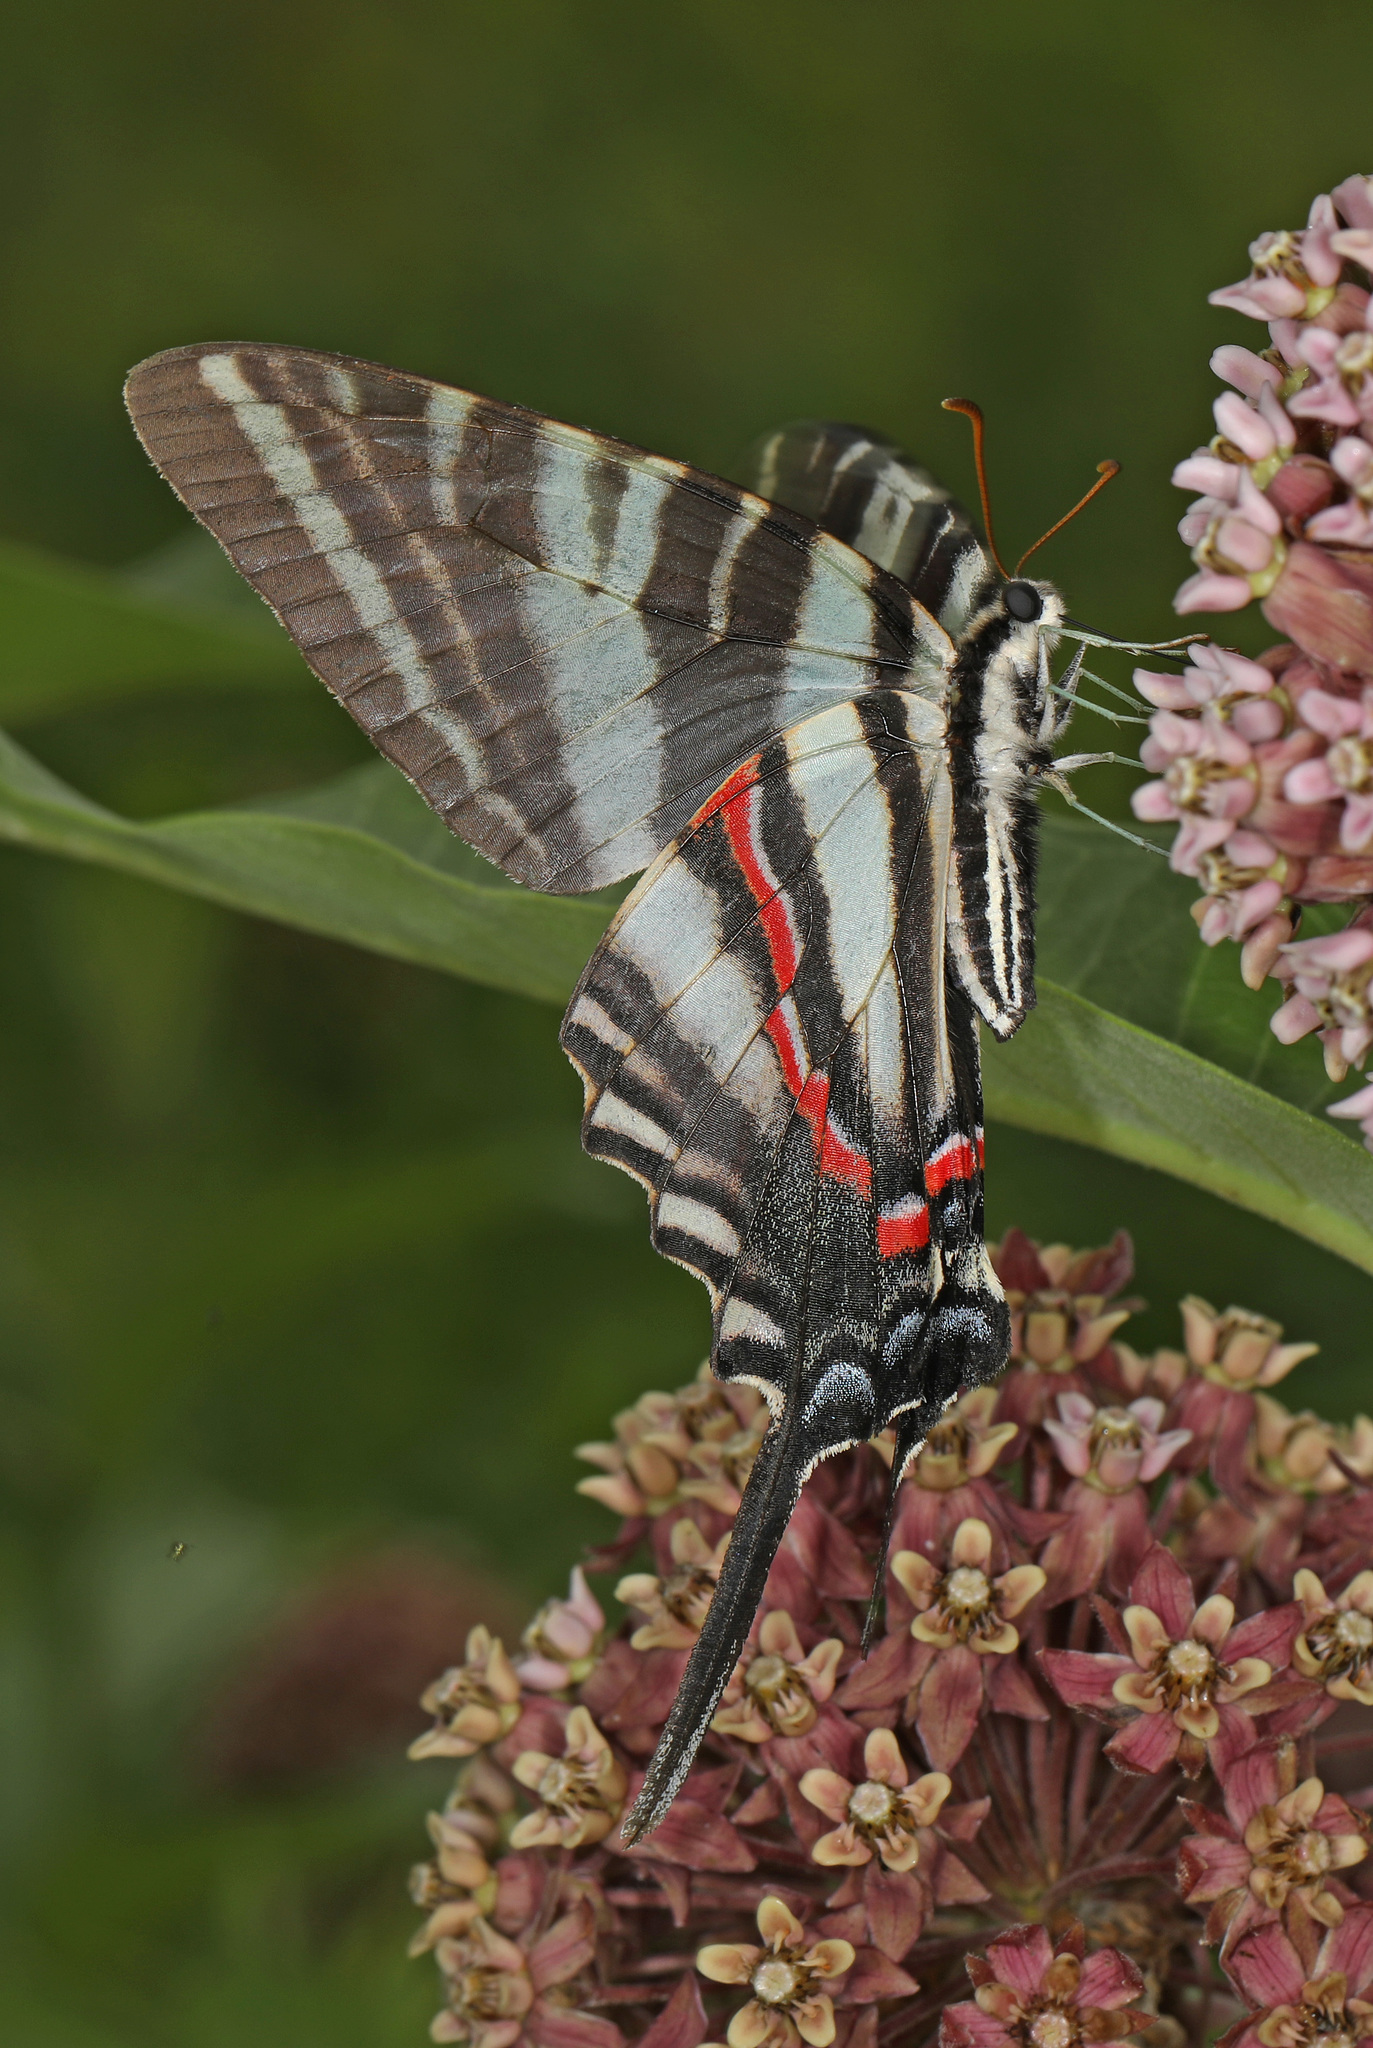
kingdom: Animalia
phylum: Arthropoda
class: Insecta
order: Lepidoptera
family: Papilionidae
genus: Protographium
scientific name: Protographium marcellus
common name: Zebra swallowtail
